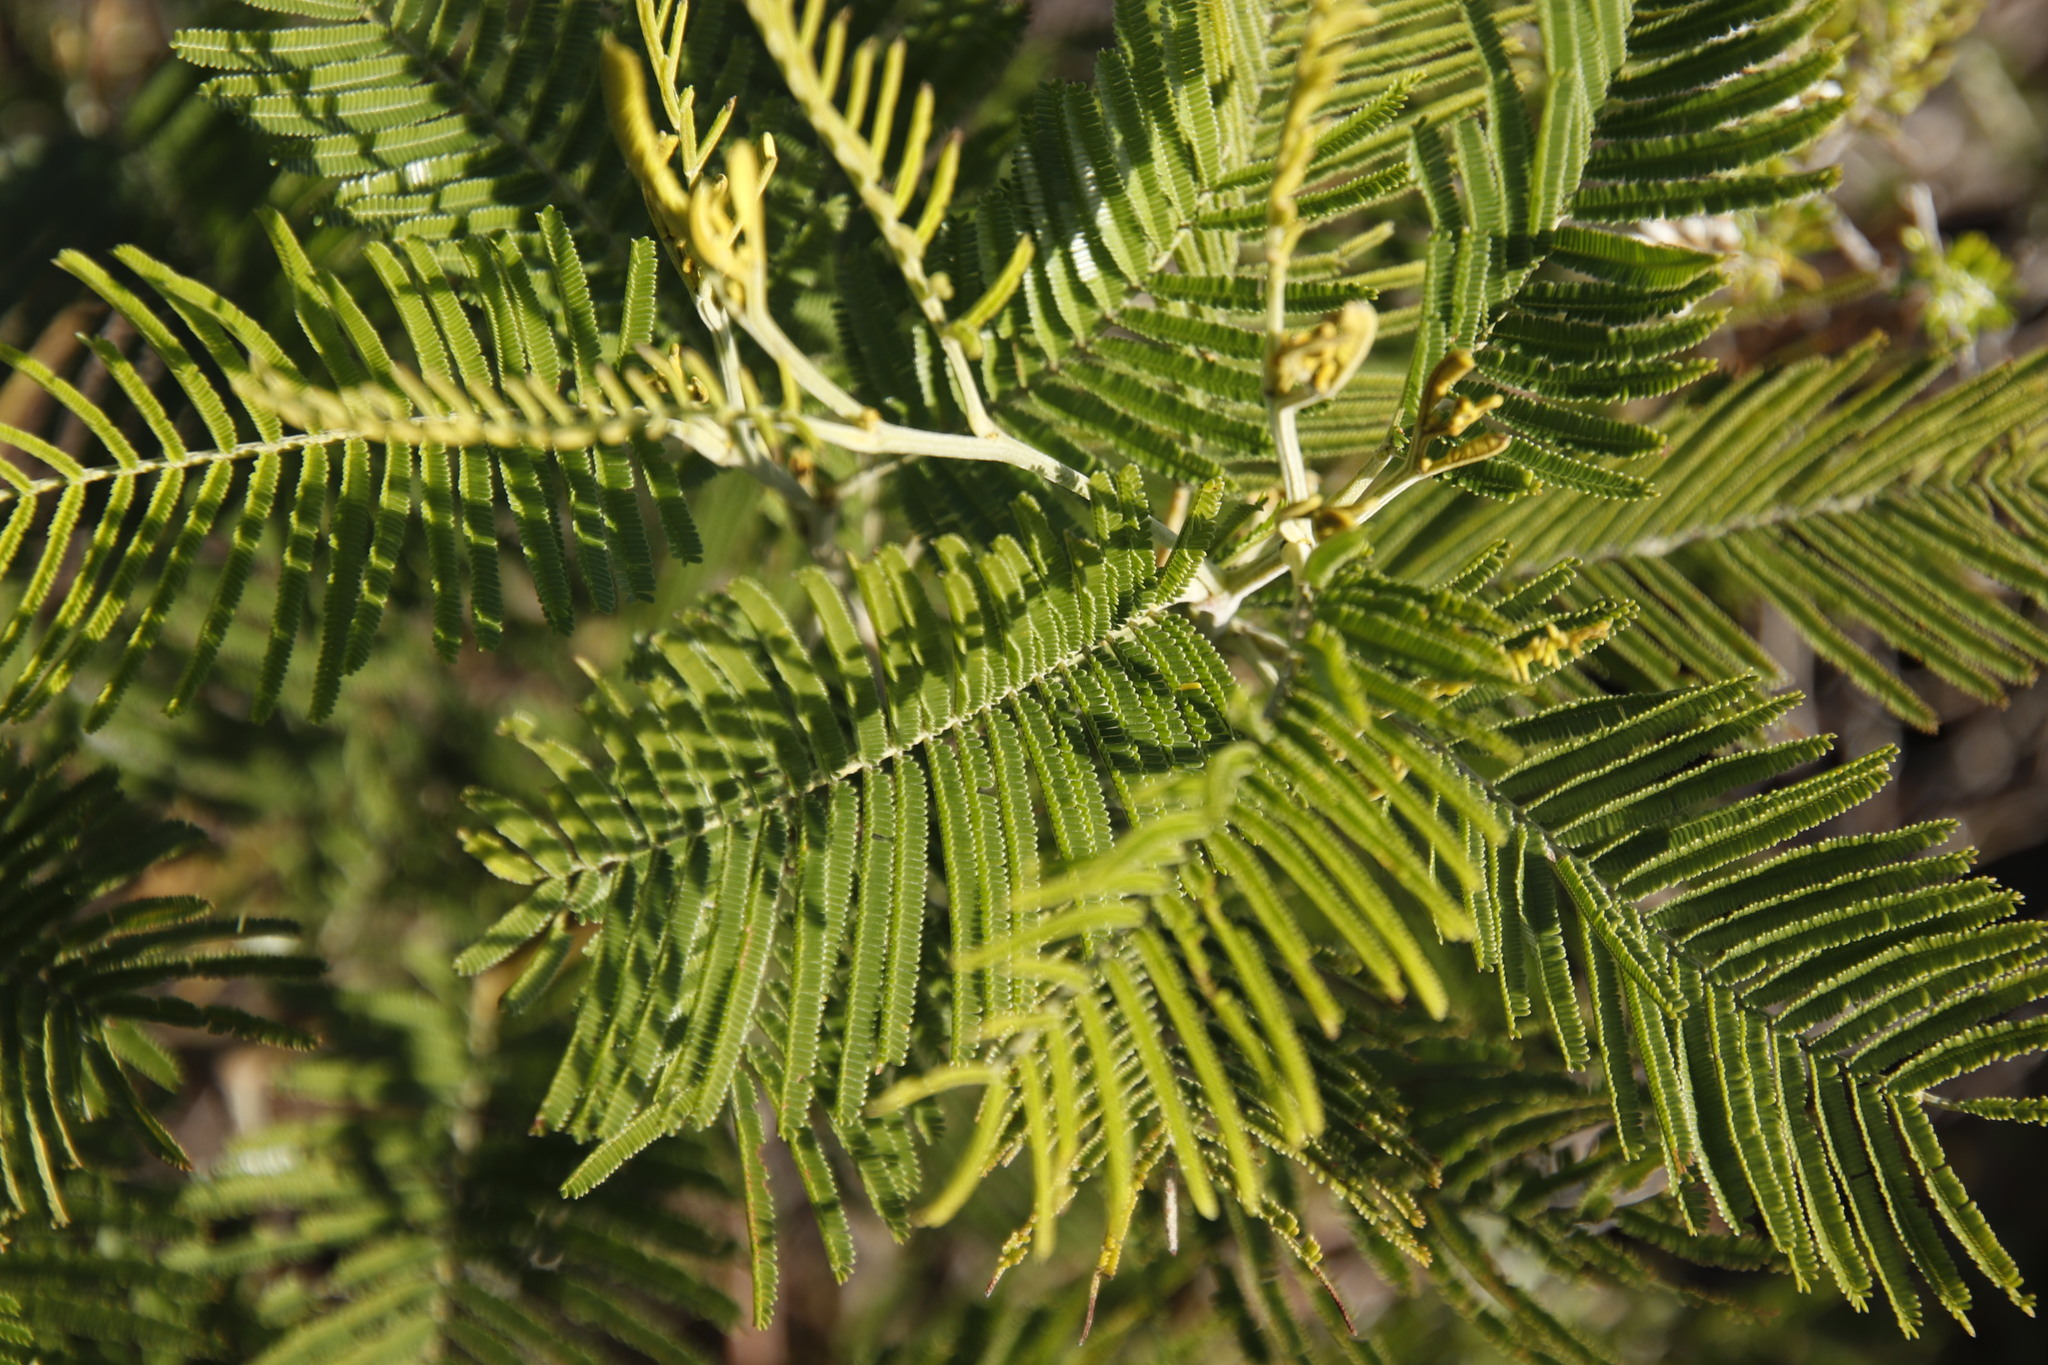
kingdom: Plantae
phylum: Tracheophyta
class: Magnoliopsida
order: Fabales
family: Fabaceae
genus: Acacia
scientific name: Acacia mearnsii
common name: Black wattle
